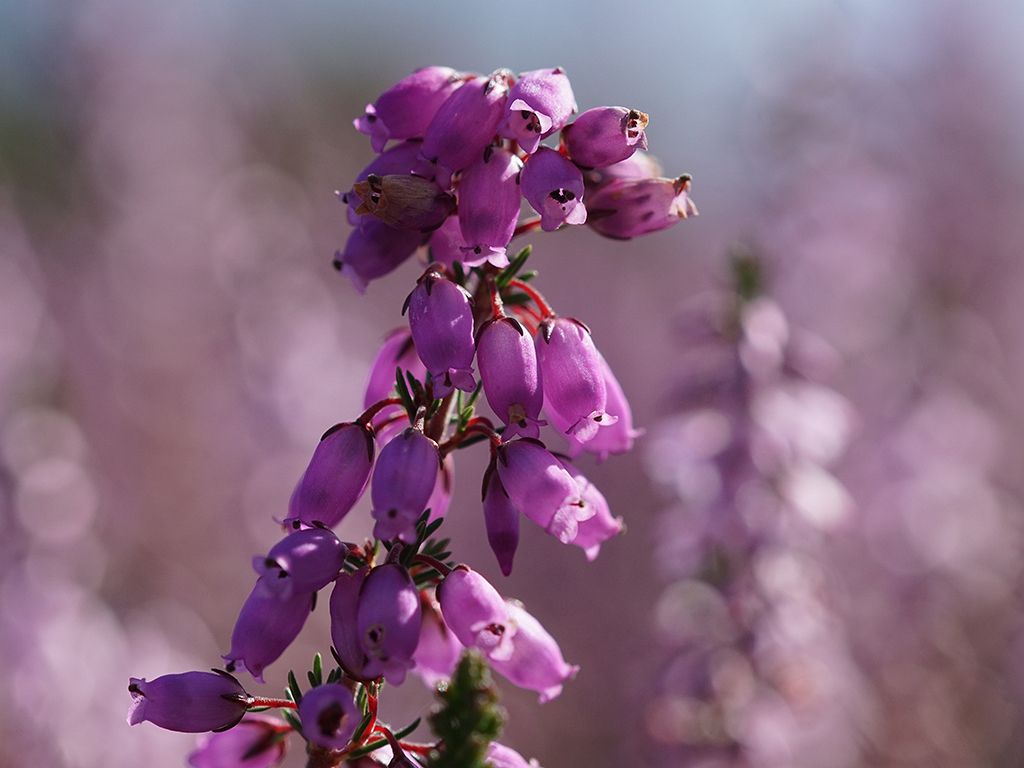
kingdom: Plantae
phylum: Tracheophyta
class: Magnoliopsida
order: Ericales
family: Ericaceae
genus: Erica
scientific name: Erica cinerea
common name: Bell heather
